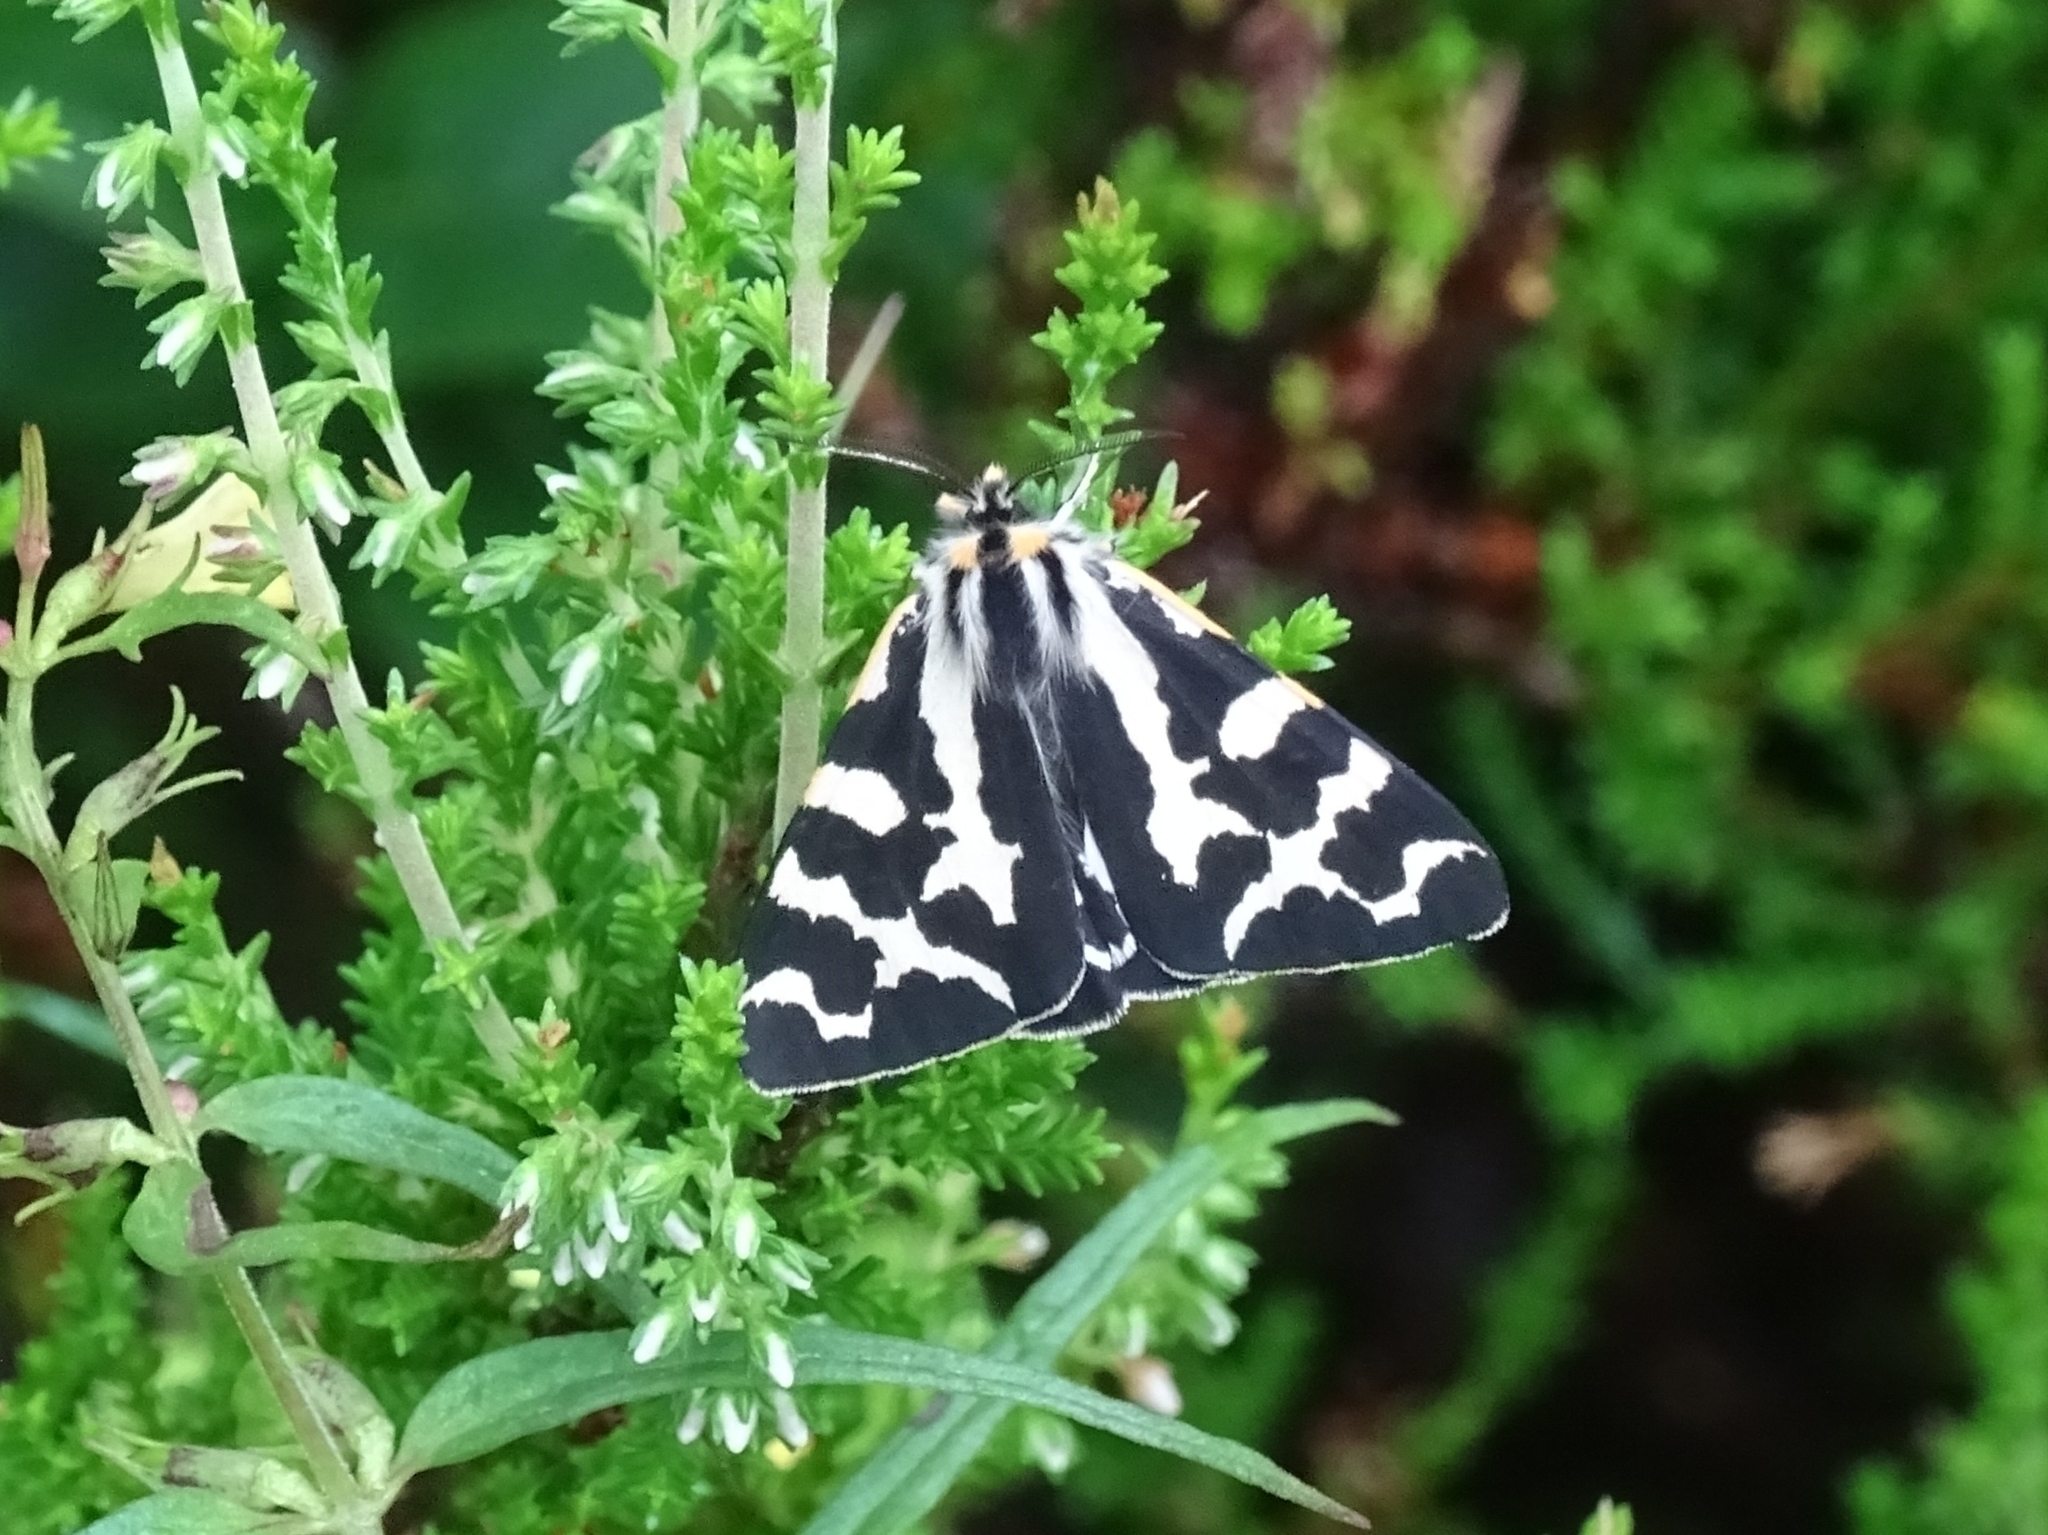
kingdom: Animalia
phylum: Arthropoda
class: Insecta
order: Lepidoptera
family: Erebidae
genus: Parasemia
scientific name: Parasemia plantaginis
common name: Wood tiger
